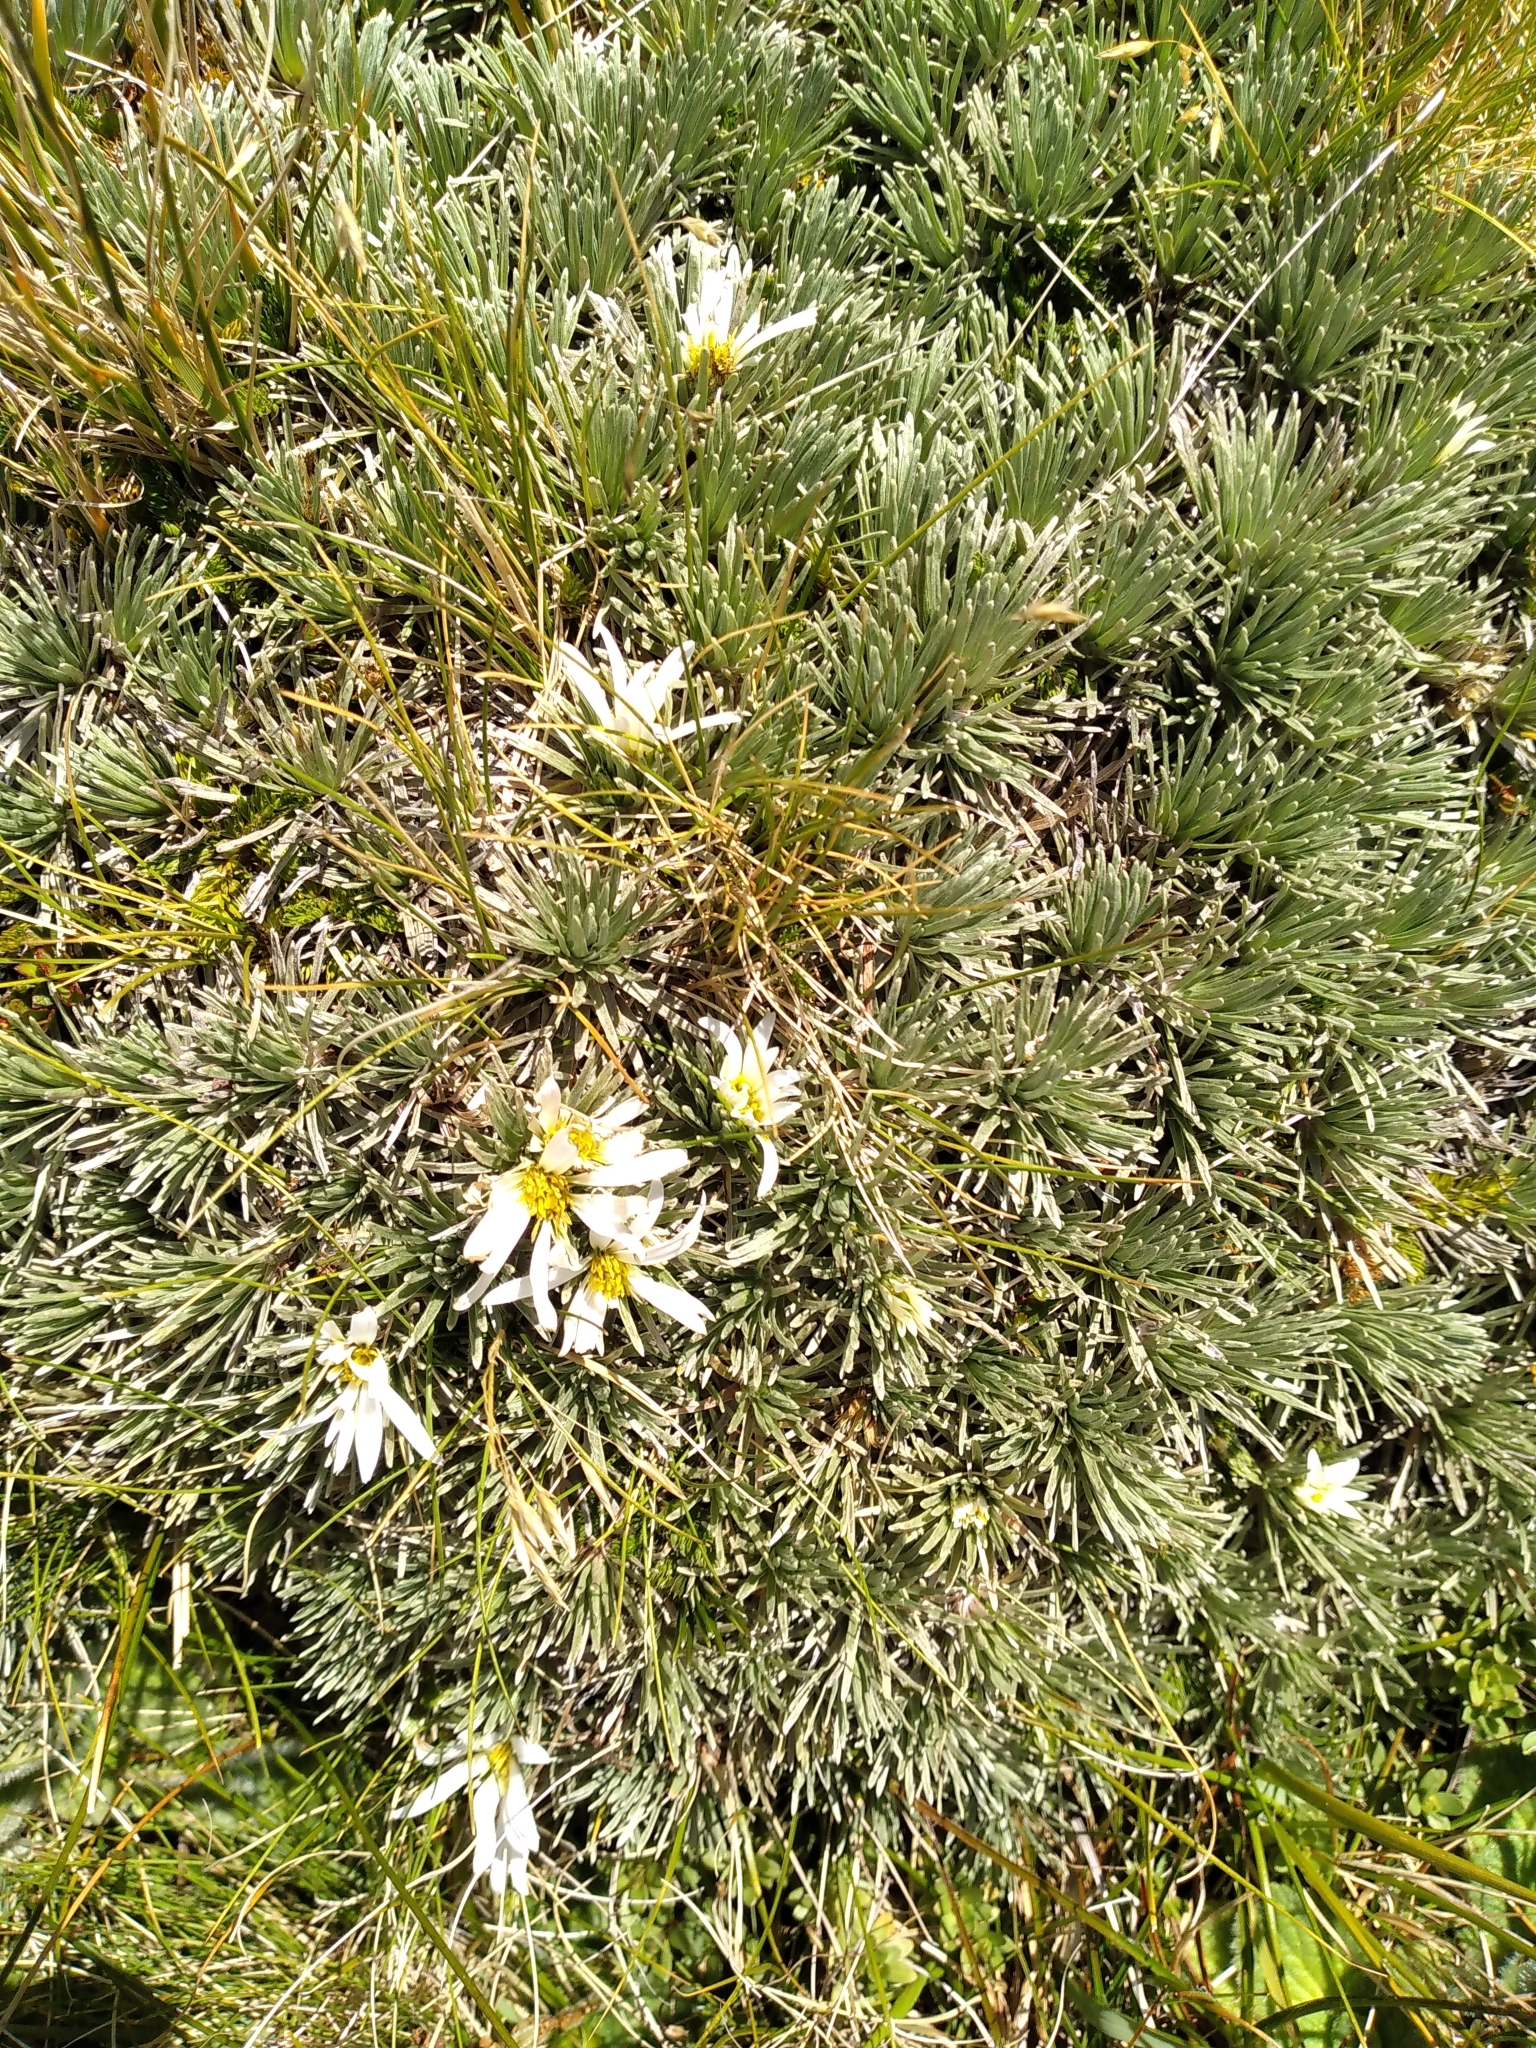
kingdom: Plantae
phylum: Tracheophyta
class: Magnoliopsida
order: Asterales
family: Asteraceae
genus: Celmisia
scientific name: Celmisia sessiliflora
